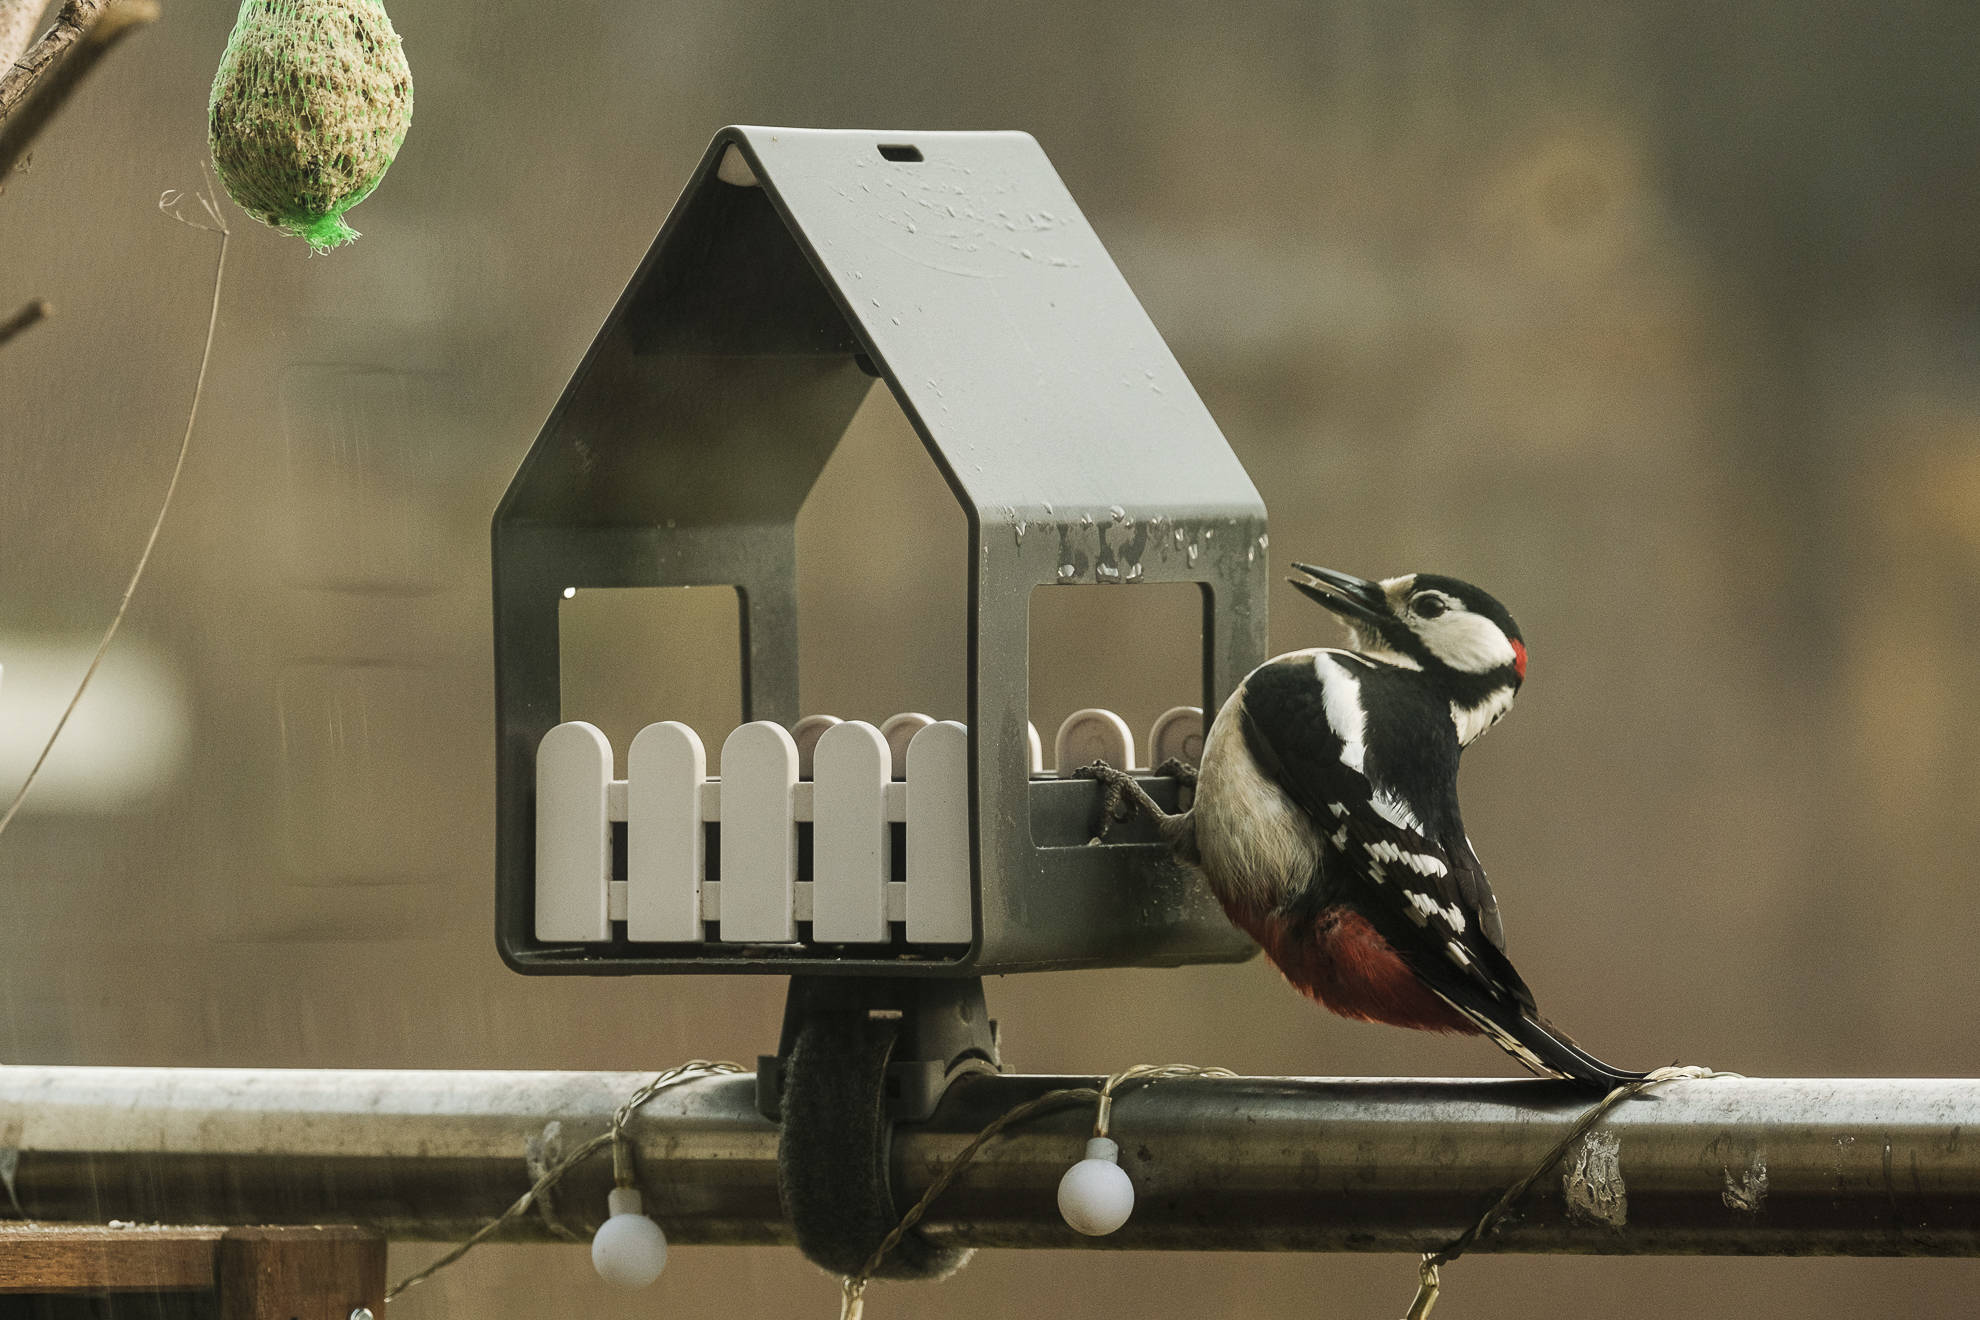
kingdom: Animalia
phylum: Chordata
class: Aves
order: Piciformes
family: Picidae
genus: Dendrocopos
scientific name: Dendrocopos major
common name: Great spotted woodpecker
